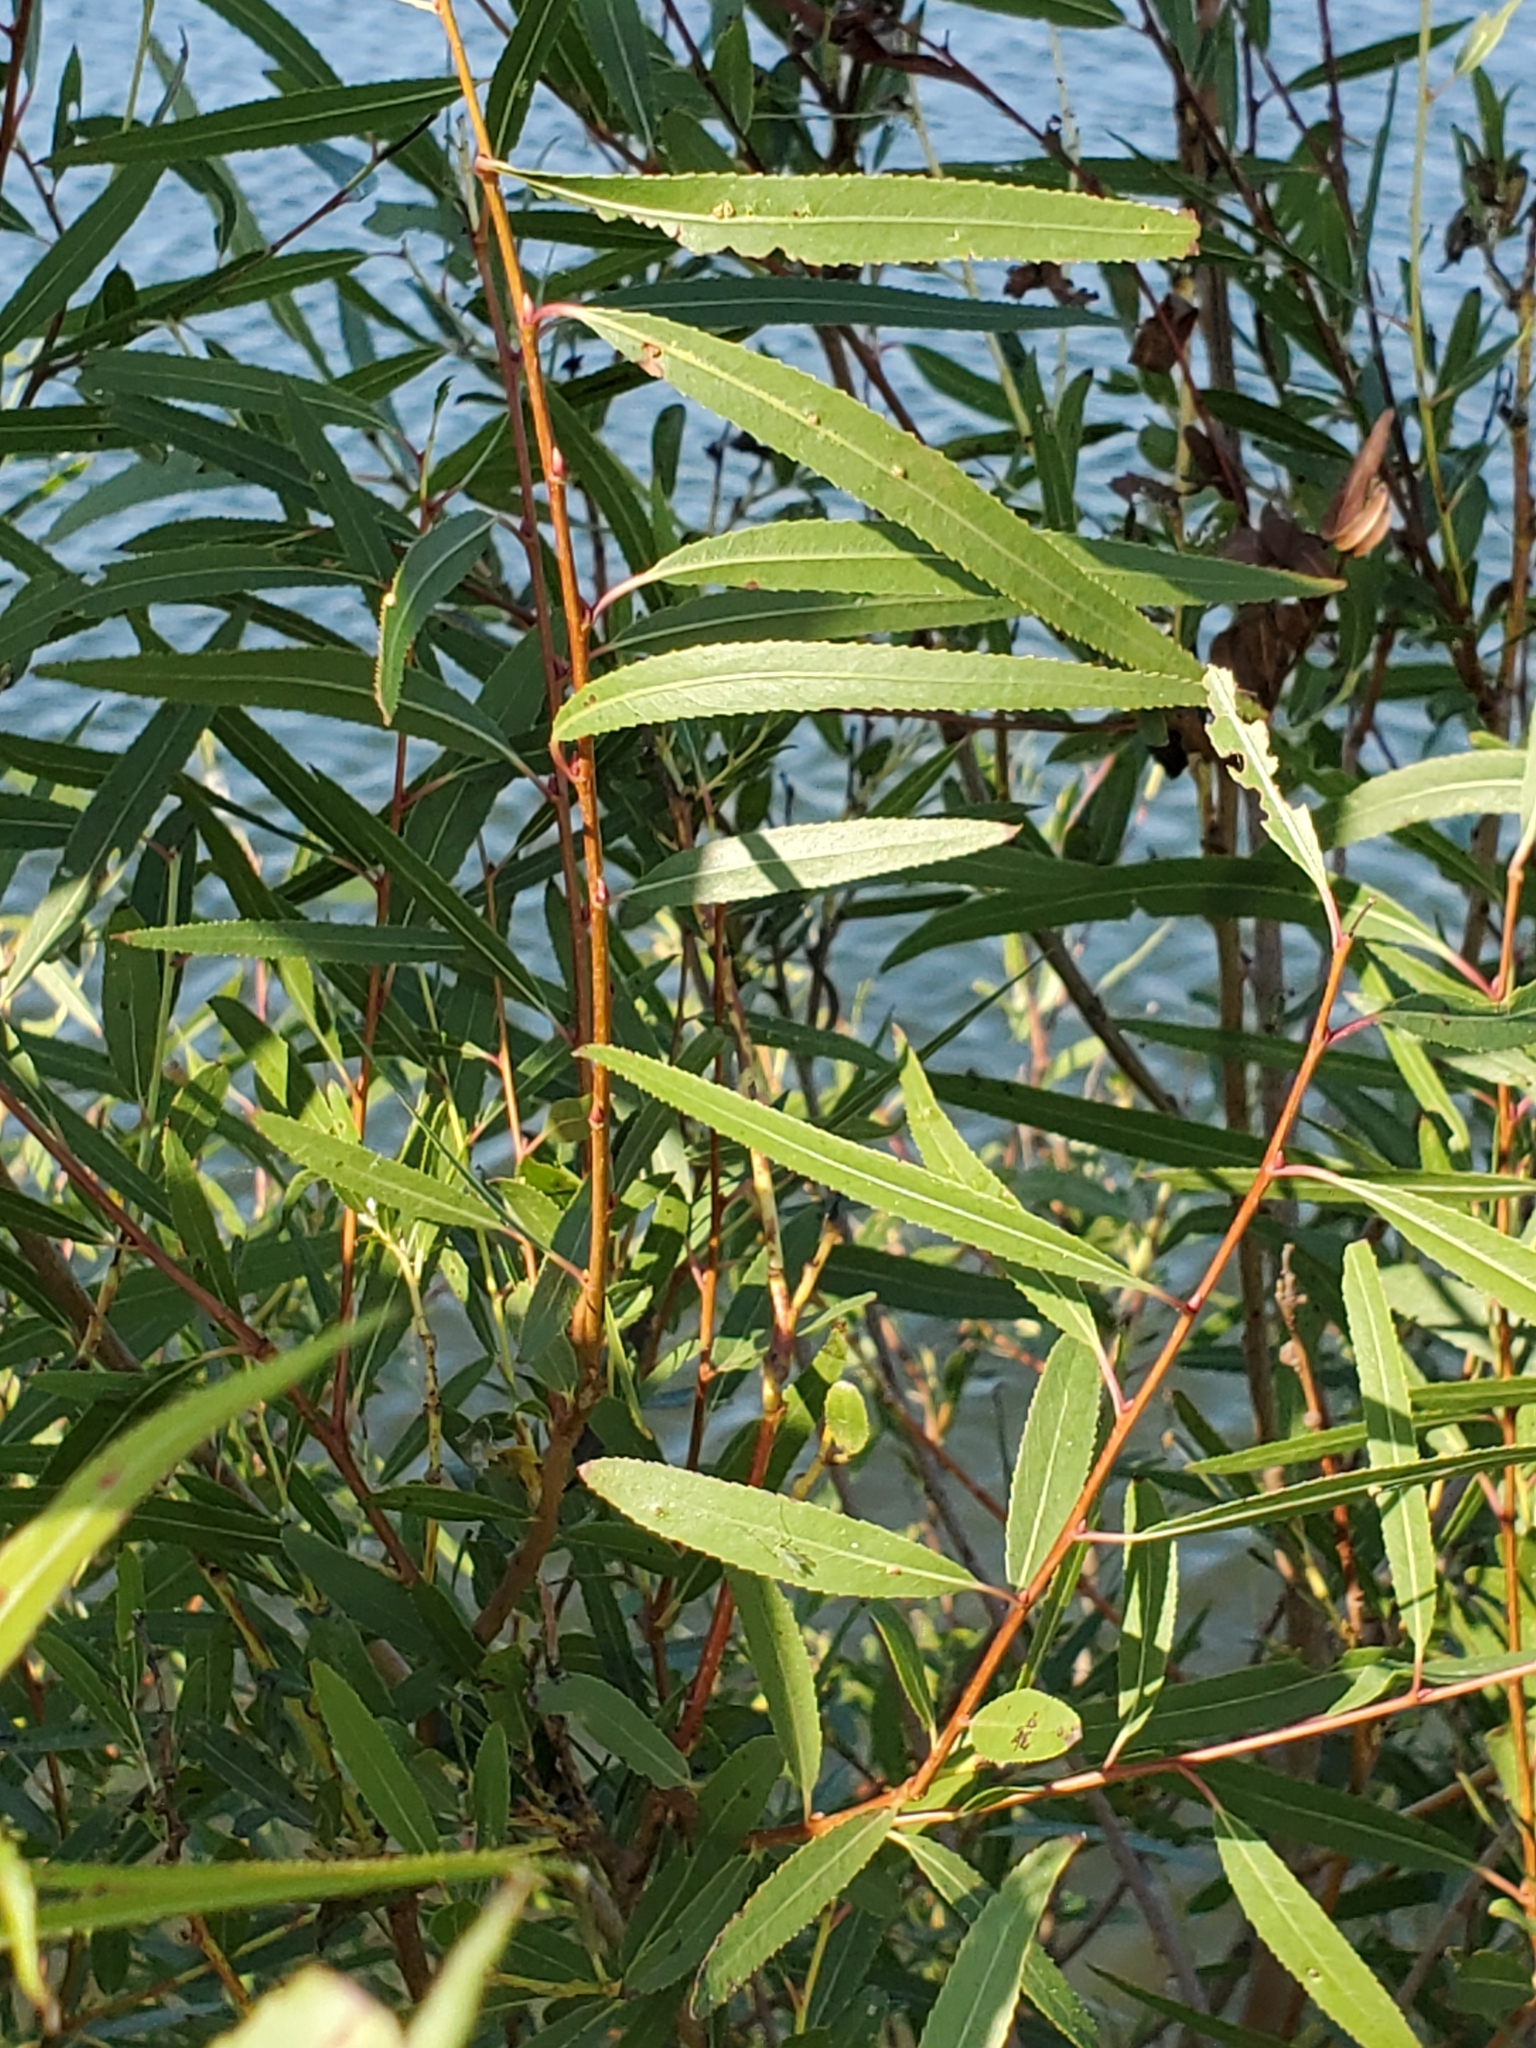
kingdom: Plantae
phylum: Tracheophyta
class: Magnoliopsida
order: Malpighiales
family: Salicaceae
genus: Salix
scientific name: Salix nigra
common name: Black willow
